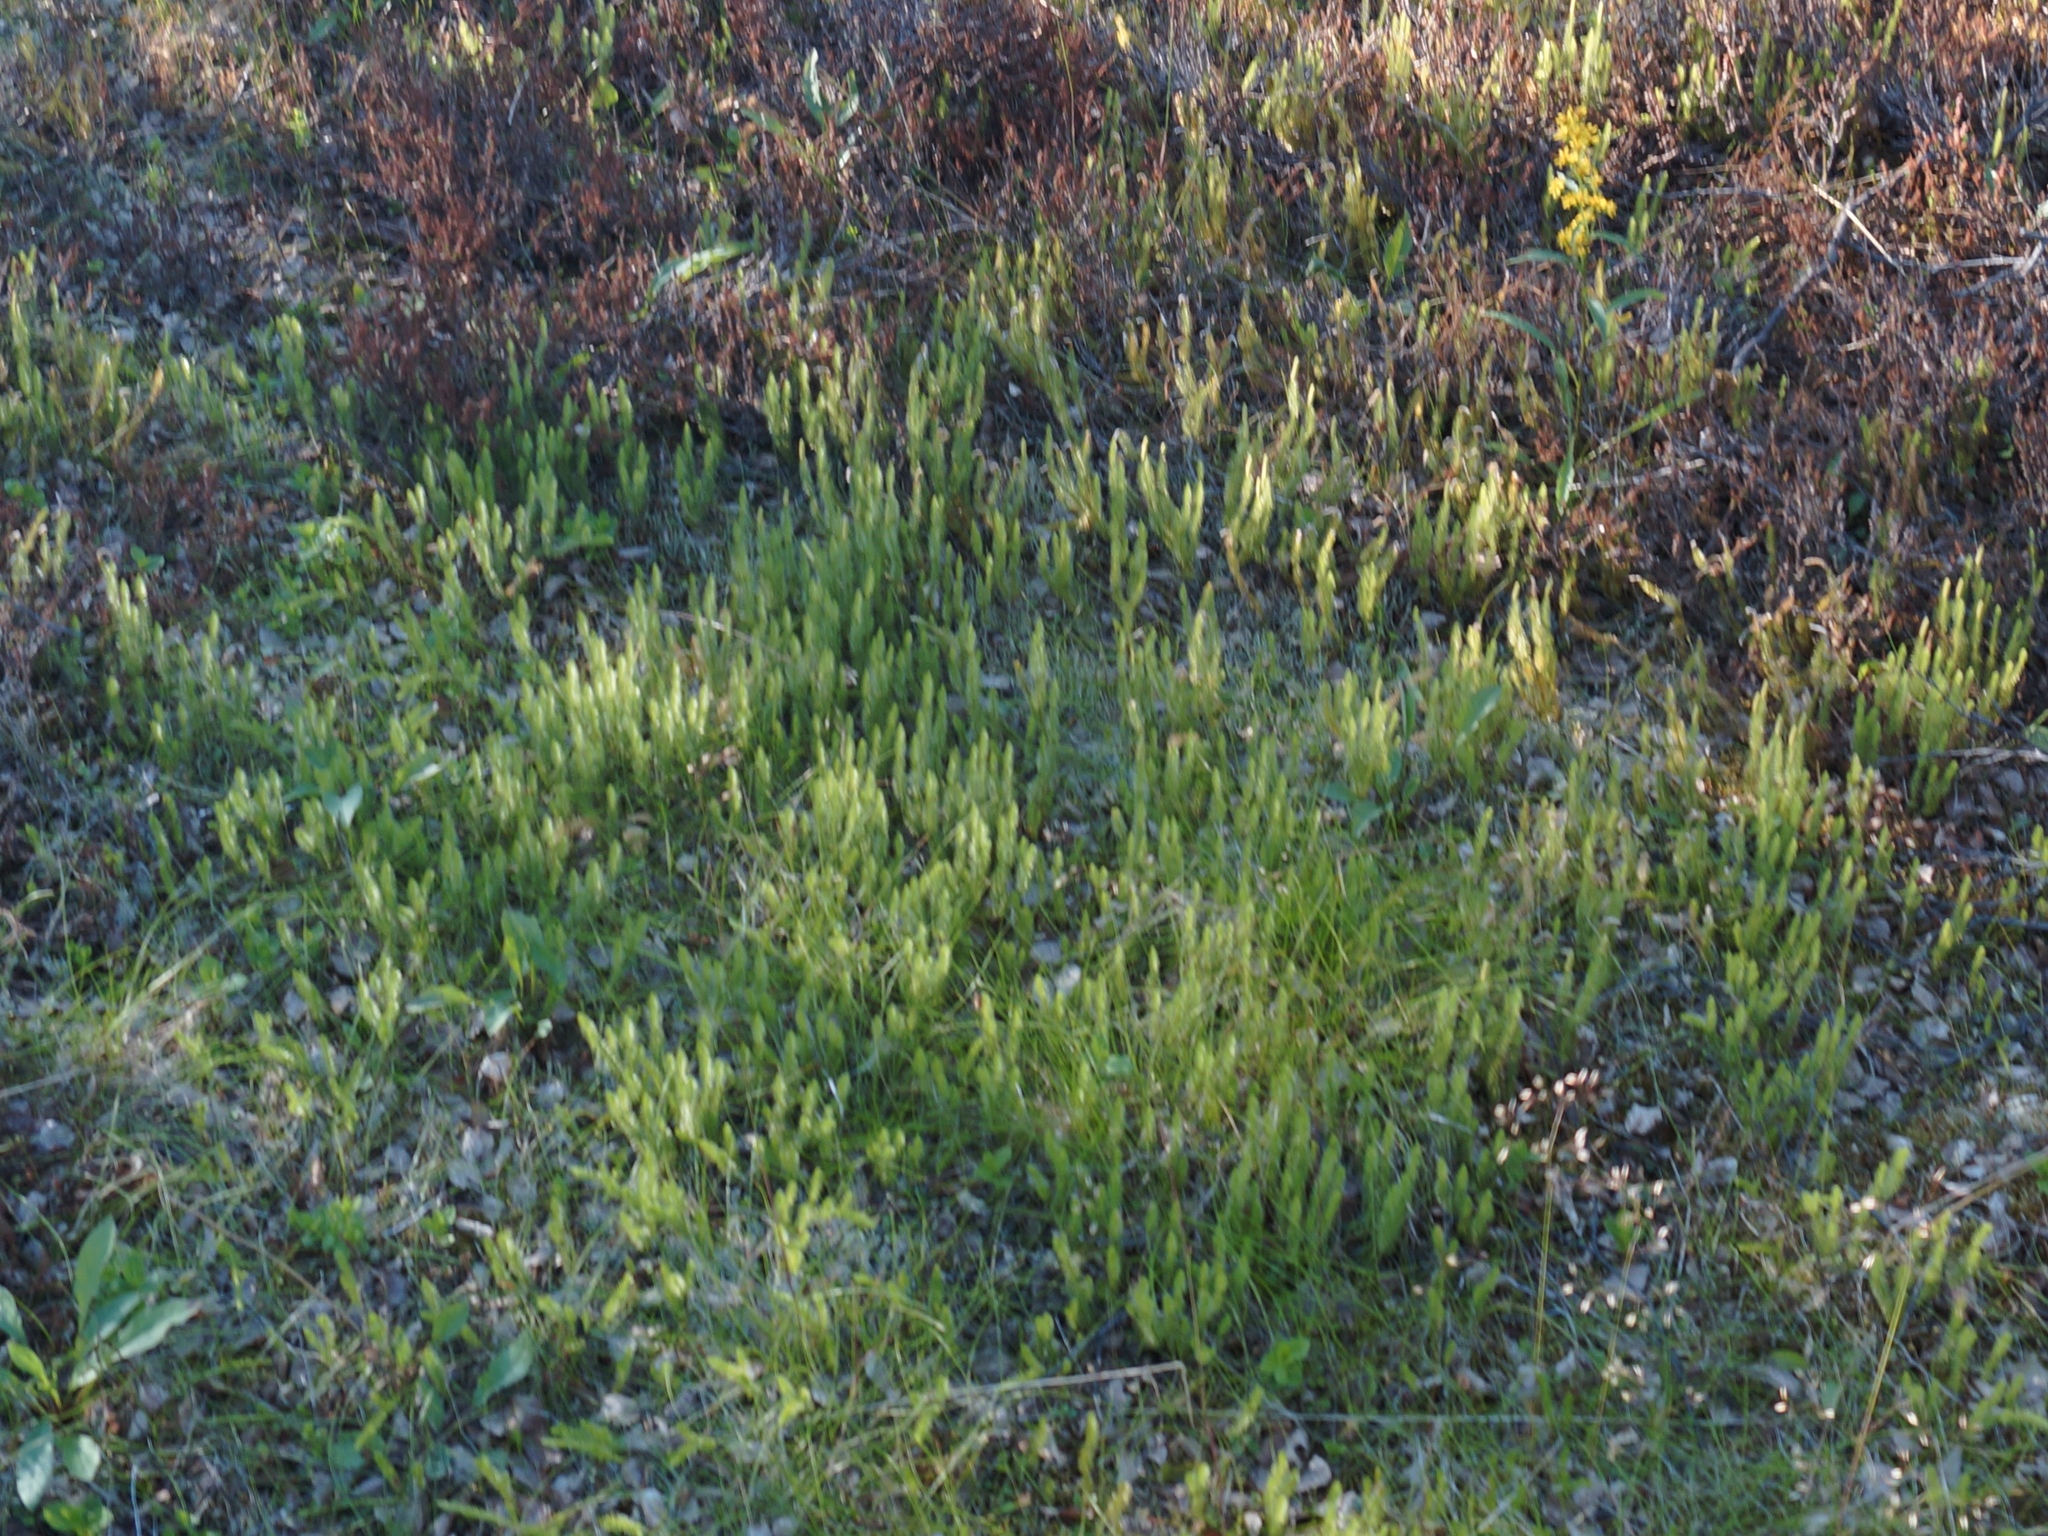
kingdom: Plantae
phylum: Tracheophyta
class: Lycopodiopsida
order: Lycopodiales
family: Lycopodiaceae
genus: Lycopodium
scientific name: Lycopodium lagopus
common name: One-cone clubmoss
